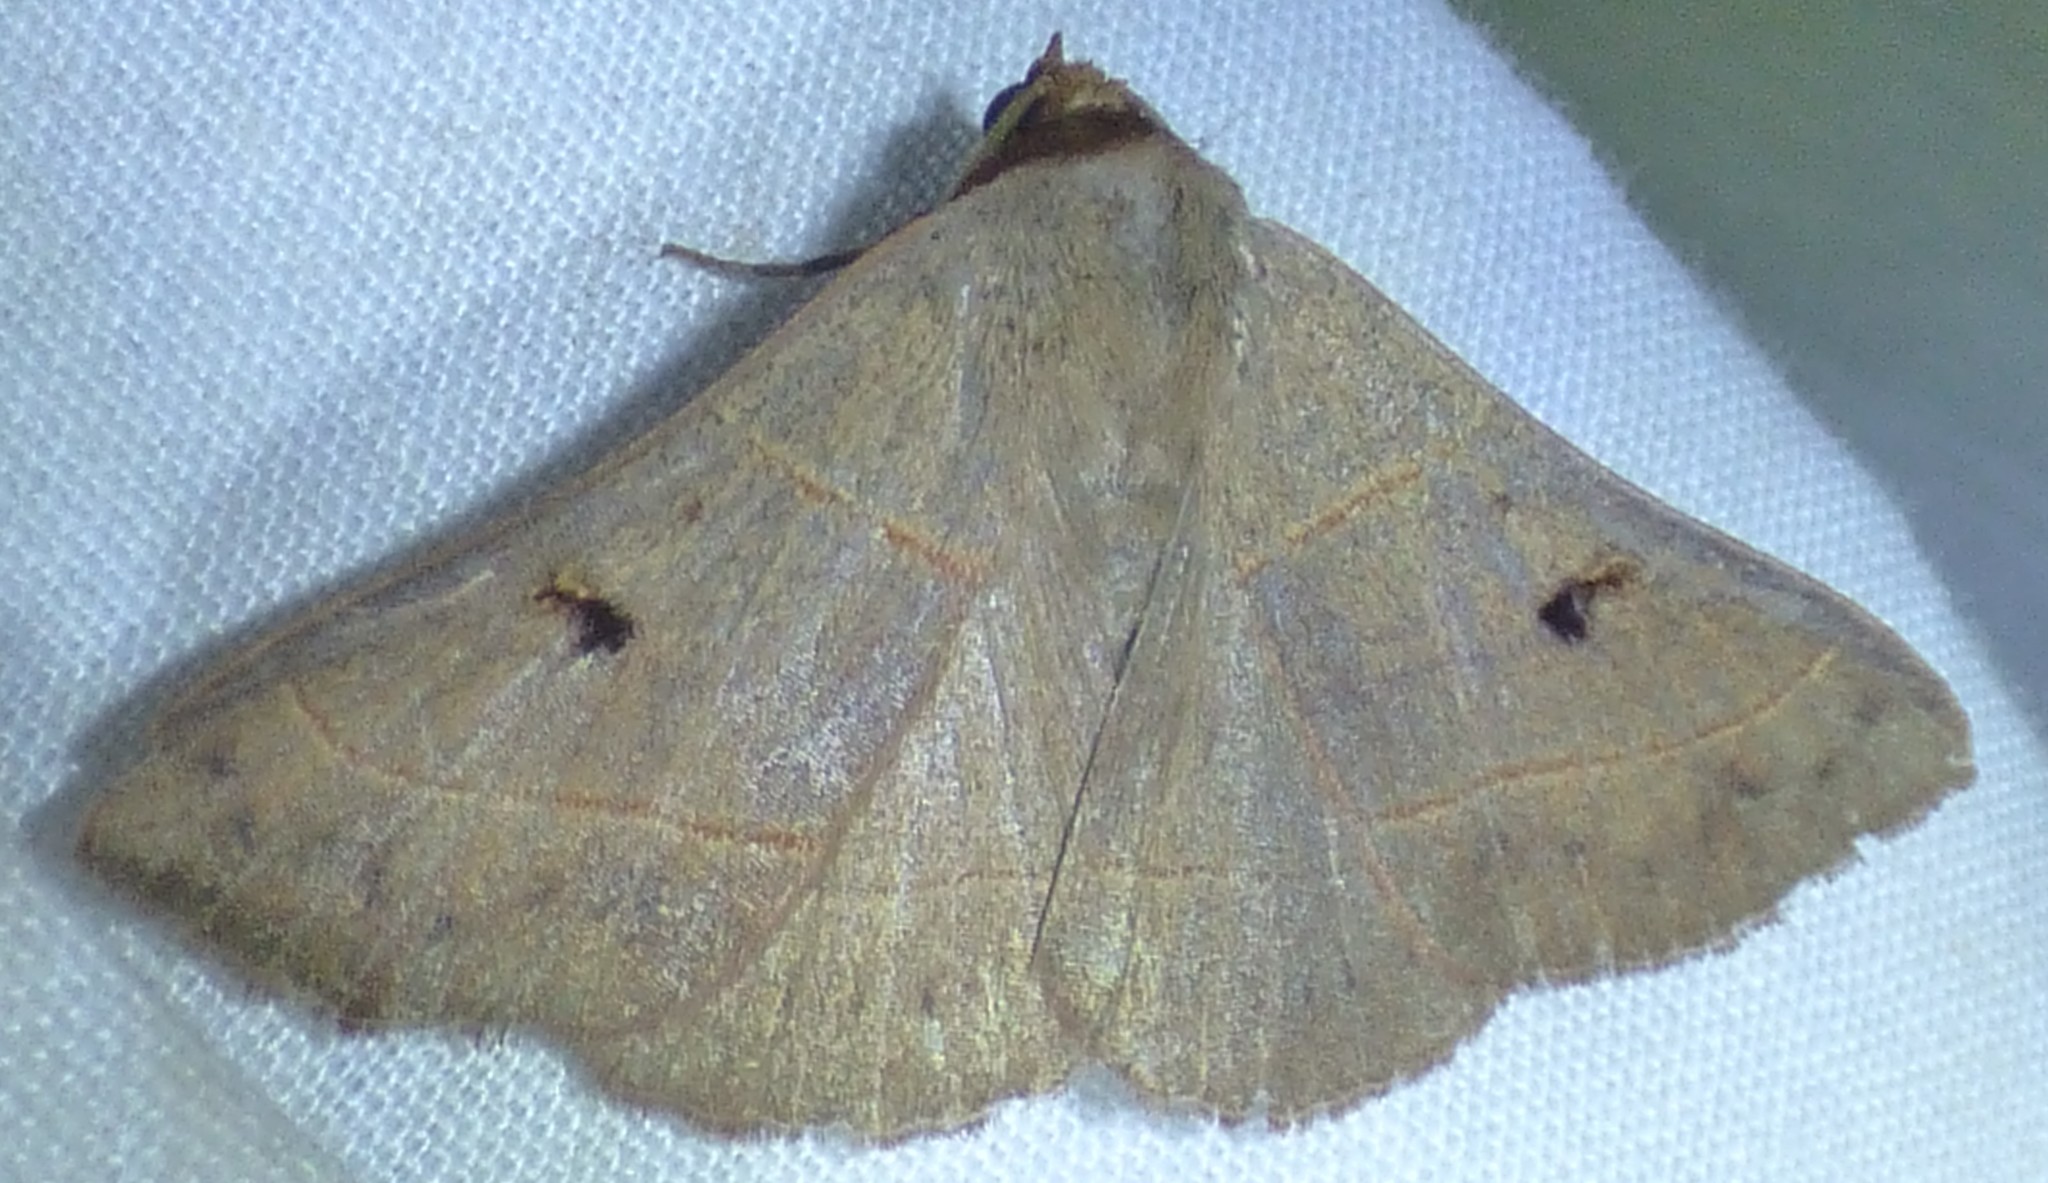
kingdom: Animalia
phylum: Arthropoda
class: Insecta
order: Lepidoptera
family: Erebidae
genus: Panopoda
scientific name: Panopoda rufimargo
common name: Red-lined panopoda moth
